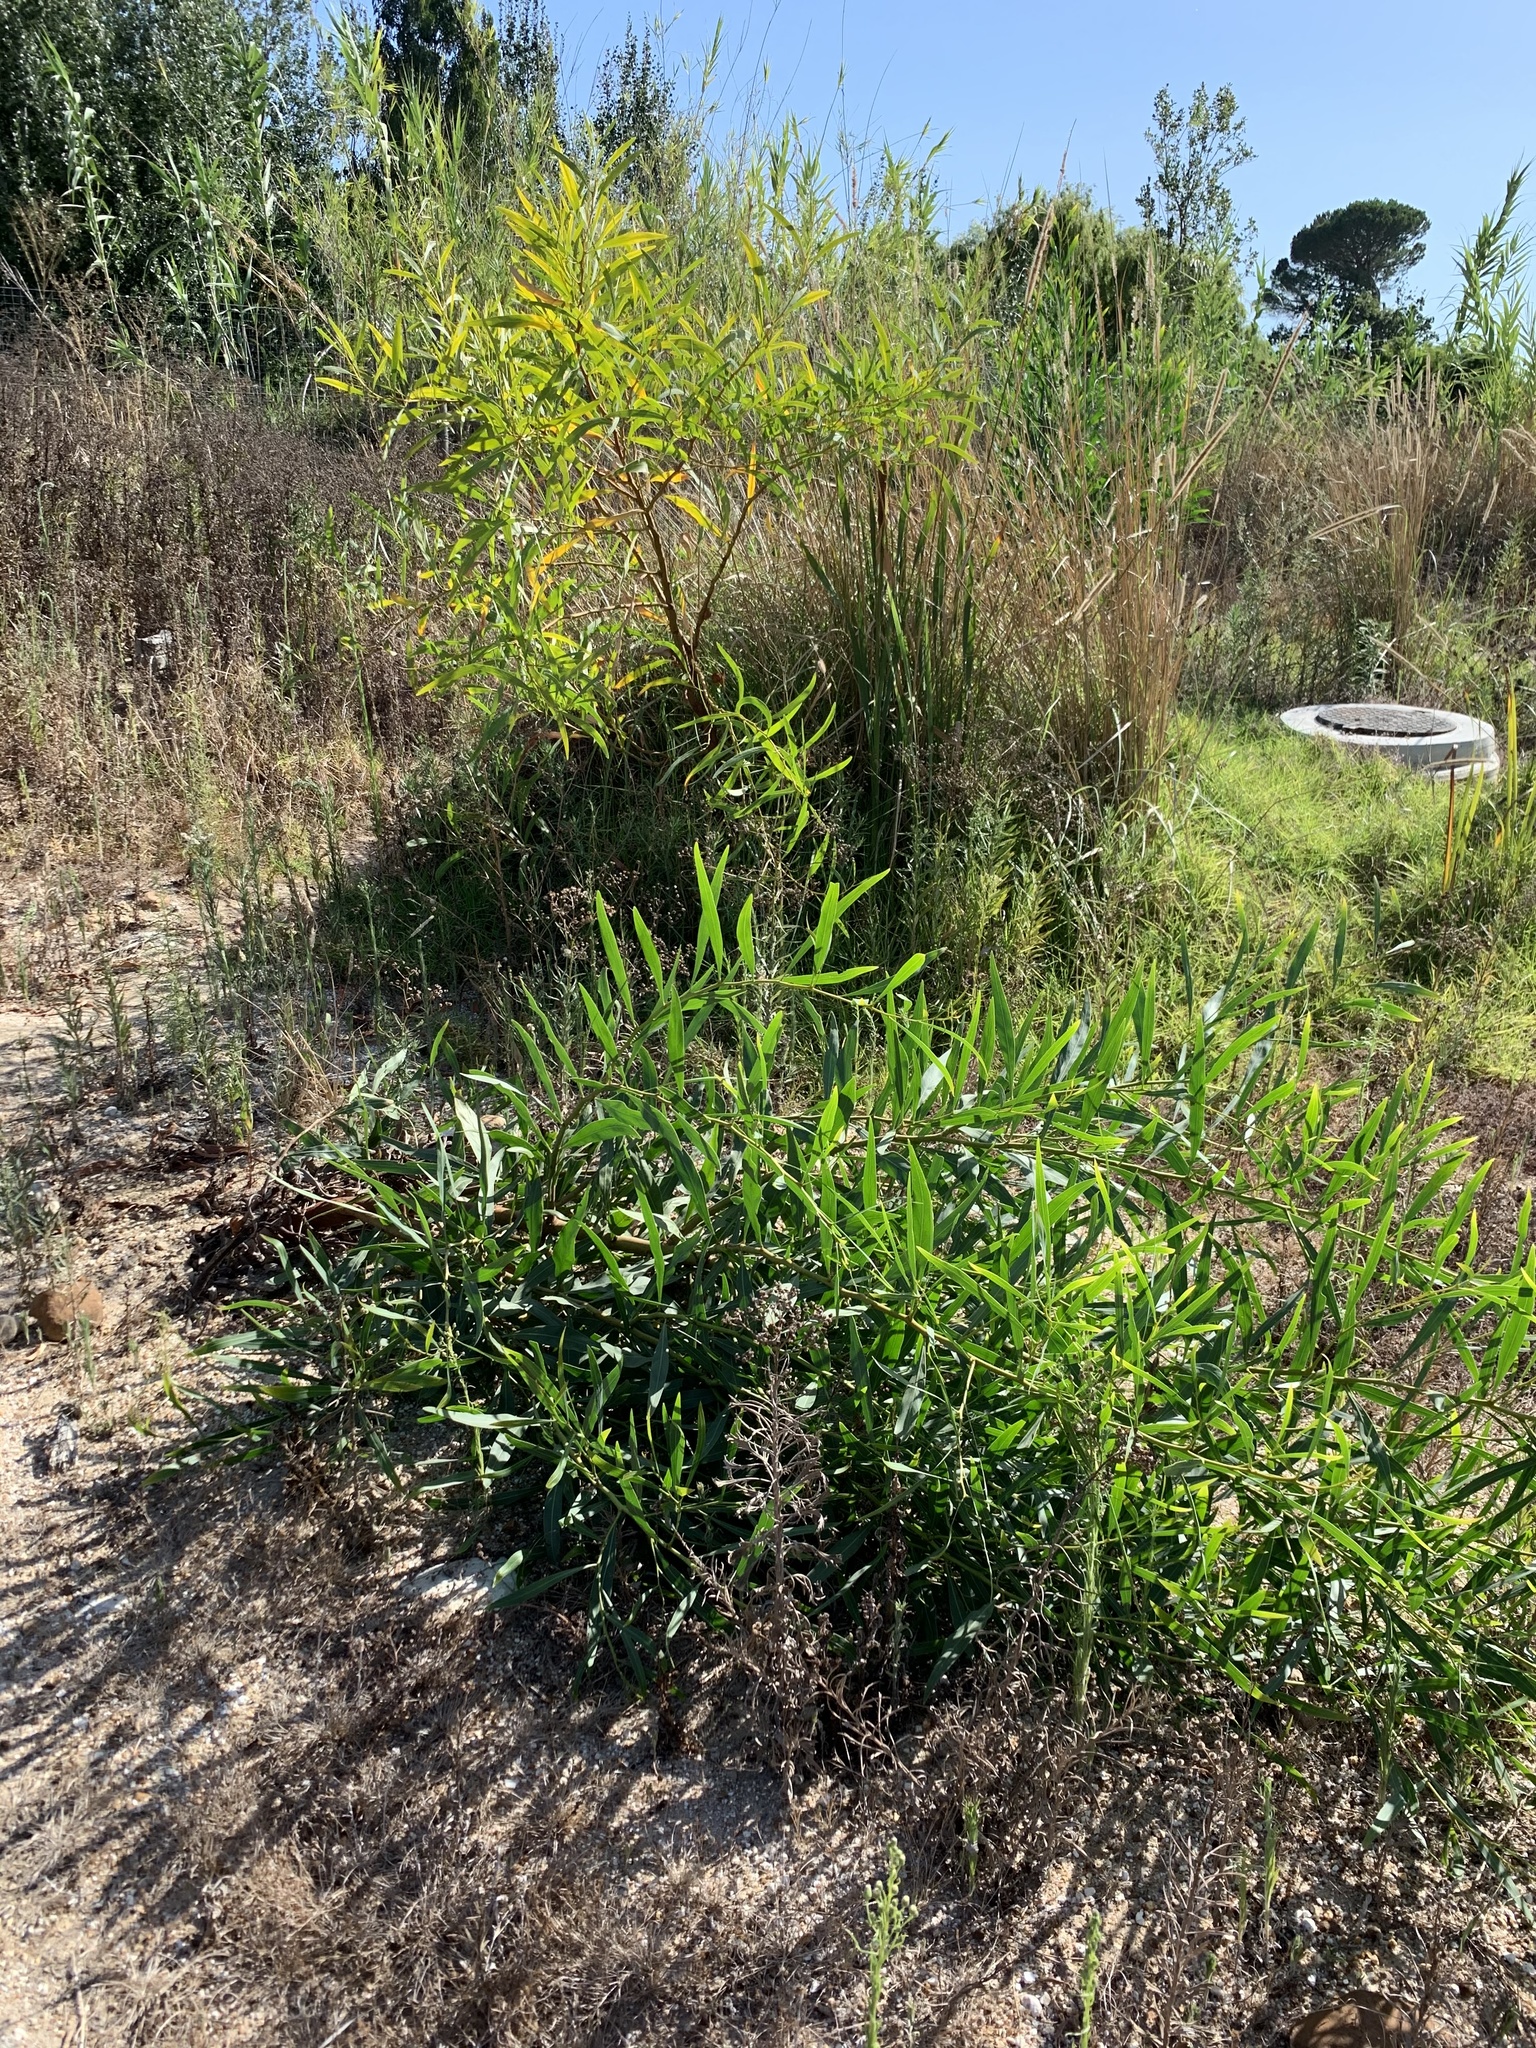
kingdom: Plantae
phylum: Tracheophyta
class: Magnoliopsida
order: Fabales
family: Fabaceae
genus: Acacia
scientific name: Acacia saligna
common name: Orange wattle
